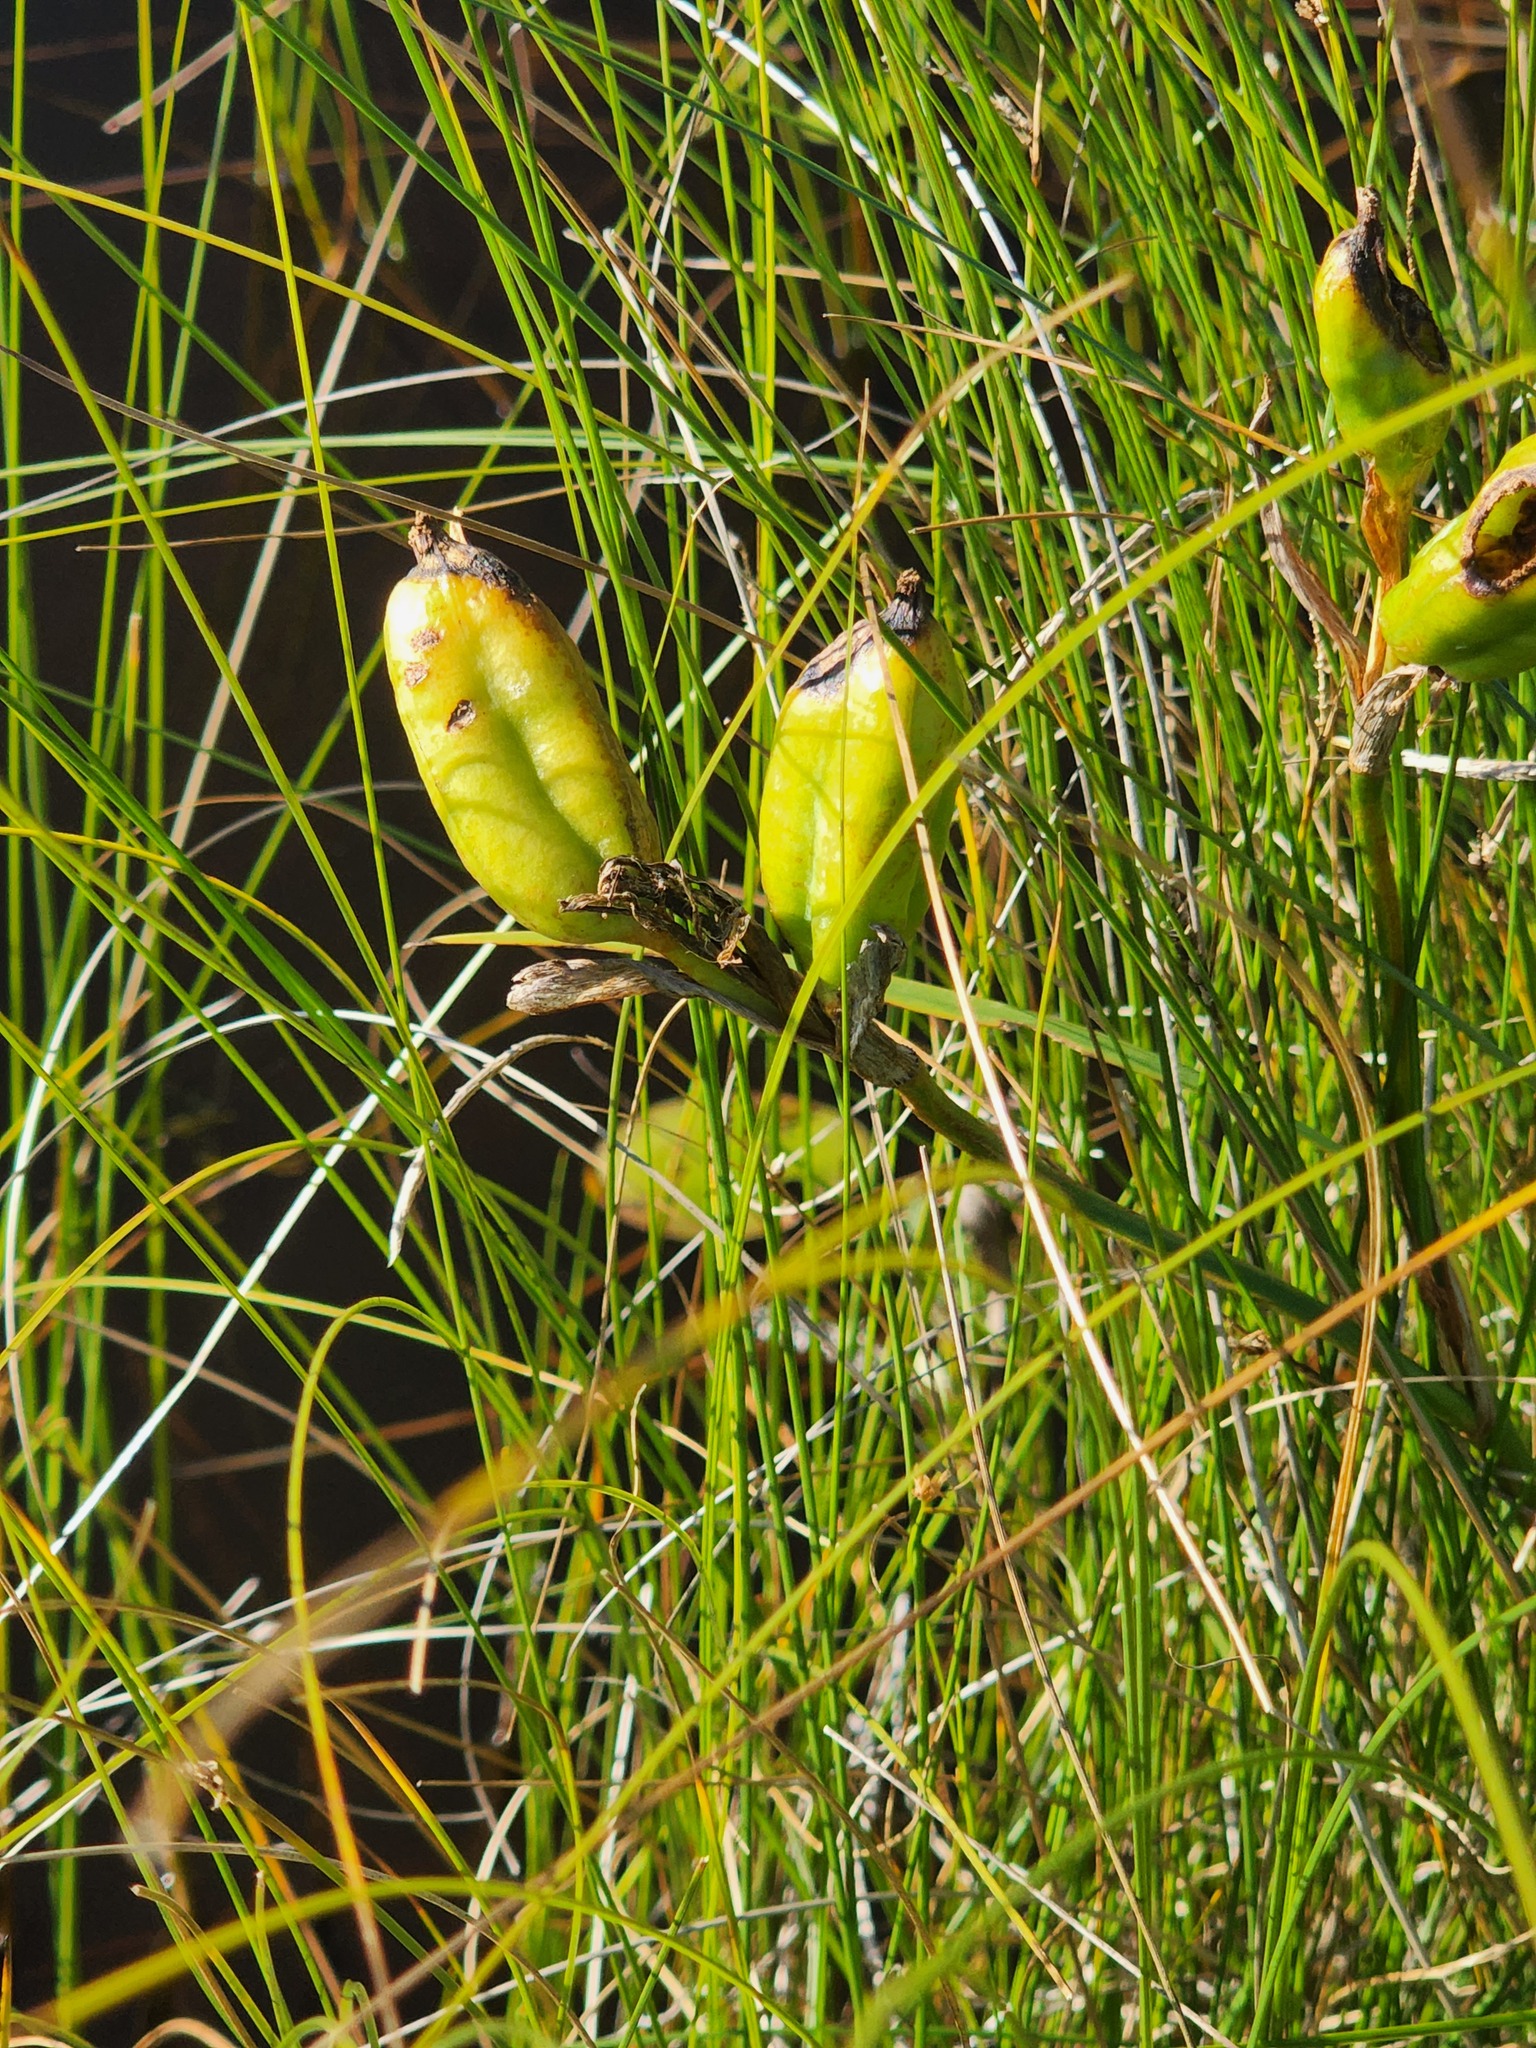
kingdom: Plantae
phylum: Tracheophyta
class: Liliopsida
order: Asparagales
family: Iridaceae
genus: Iris
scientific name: Iris versicolor
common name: Purple iris
